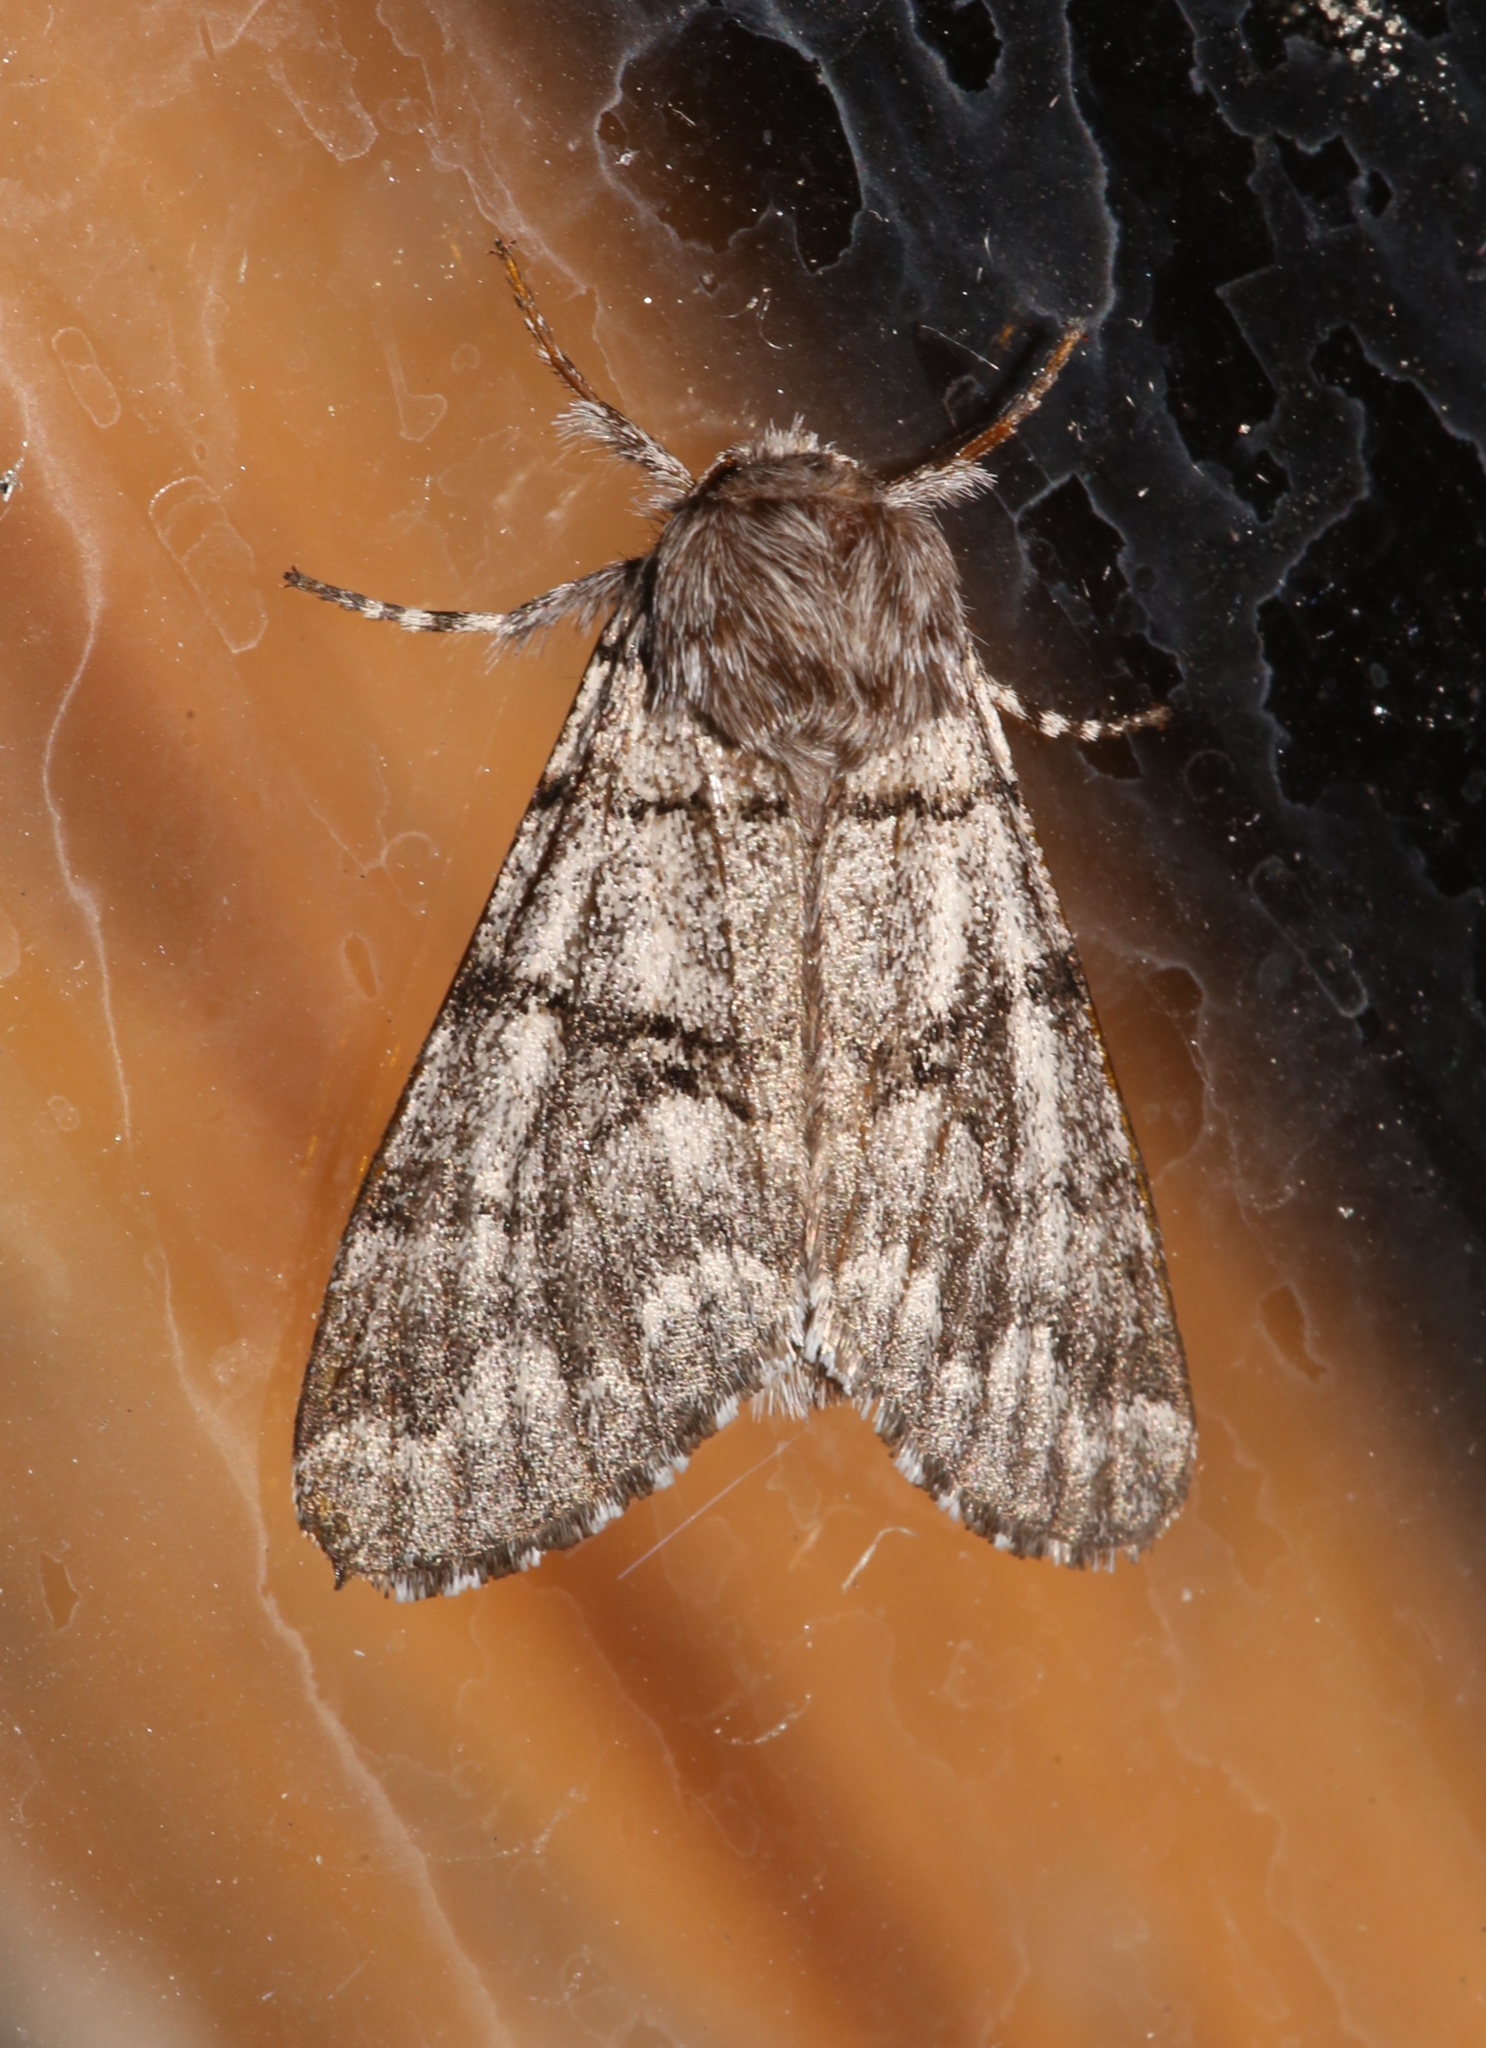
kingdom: Animalia
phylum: Arthropoda
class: Insecta
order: Lepidoptera
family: Noctuidae
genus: Panthea
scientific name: Panthea furcilla
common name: Eastern panthea moth
